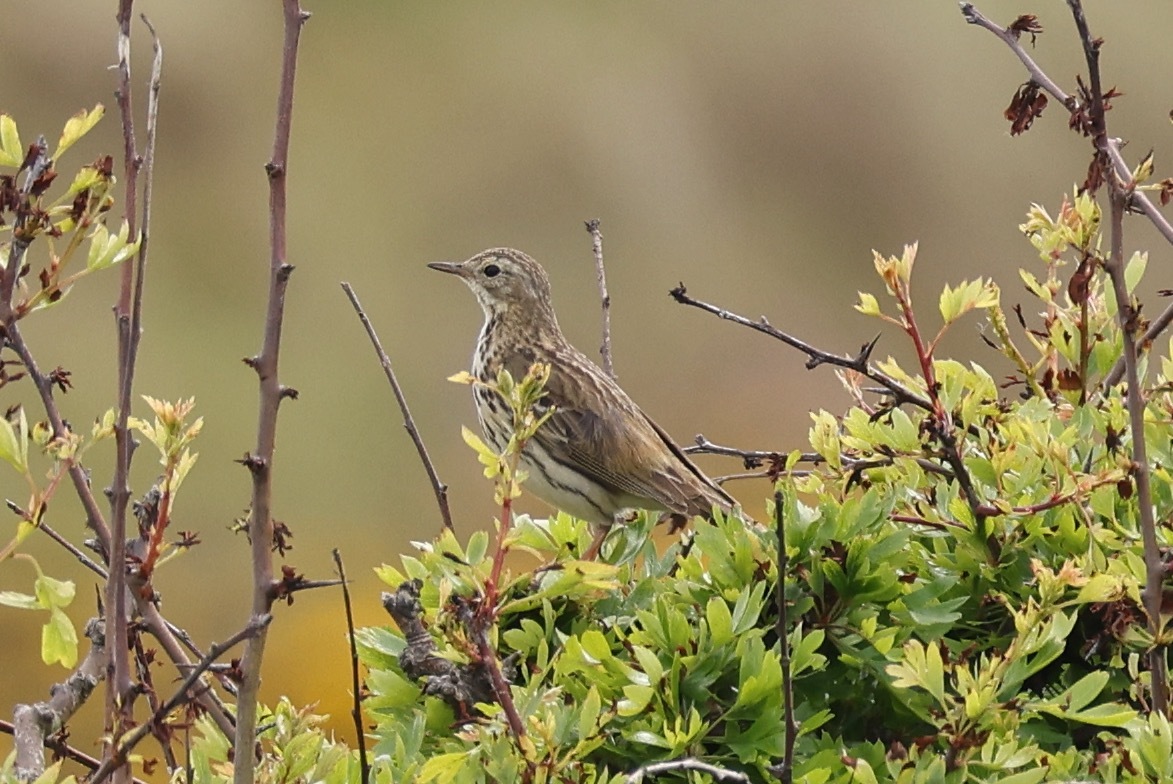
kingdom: Animalia
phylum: Chordata
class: Aves
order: Passeriformes
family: Motacillidae
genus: Anthus
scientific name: Anthus pratensis
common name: Meadow pipit
